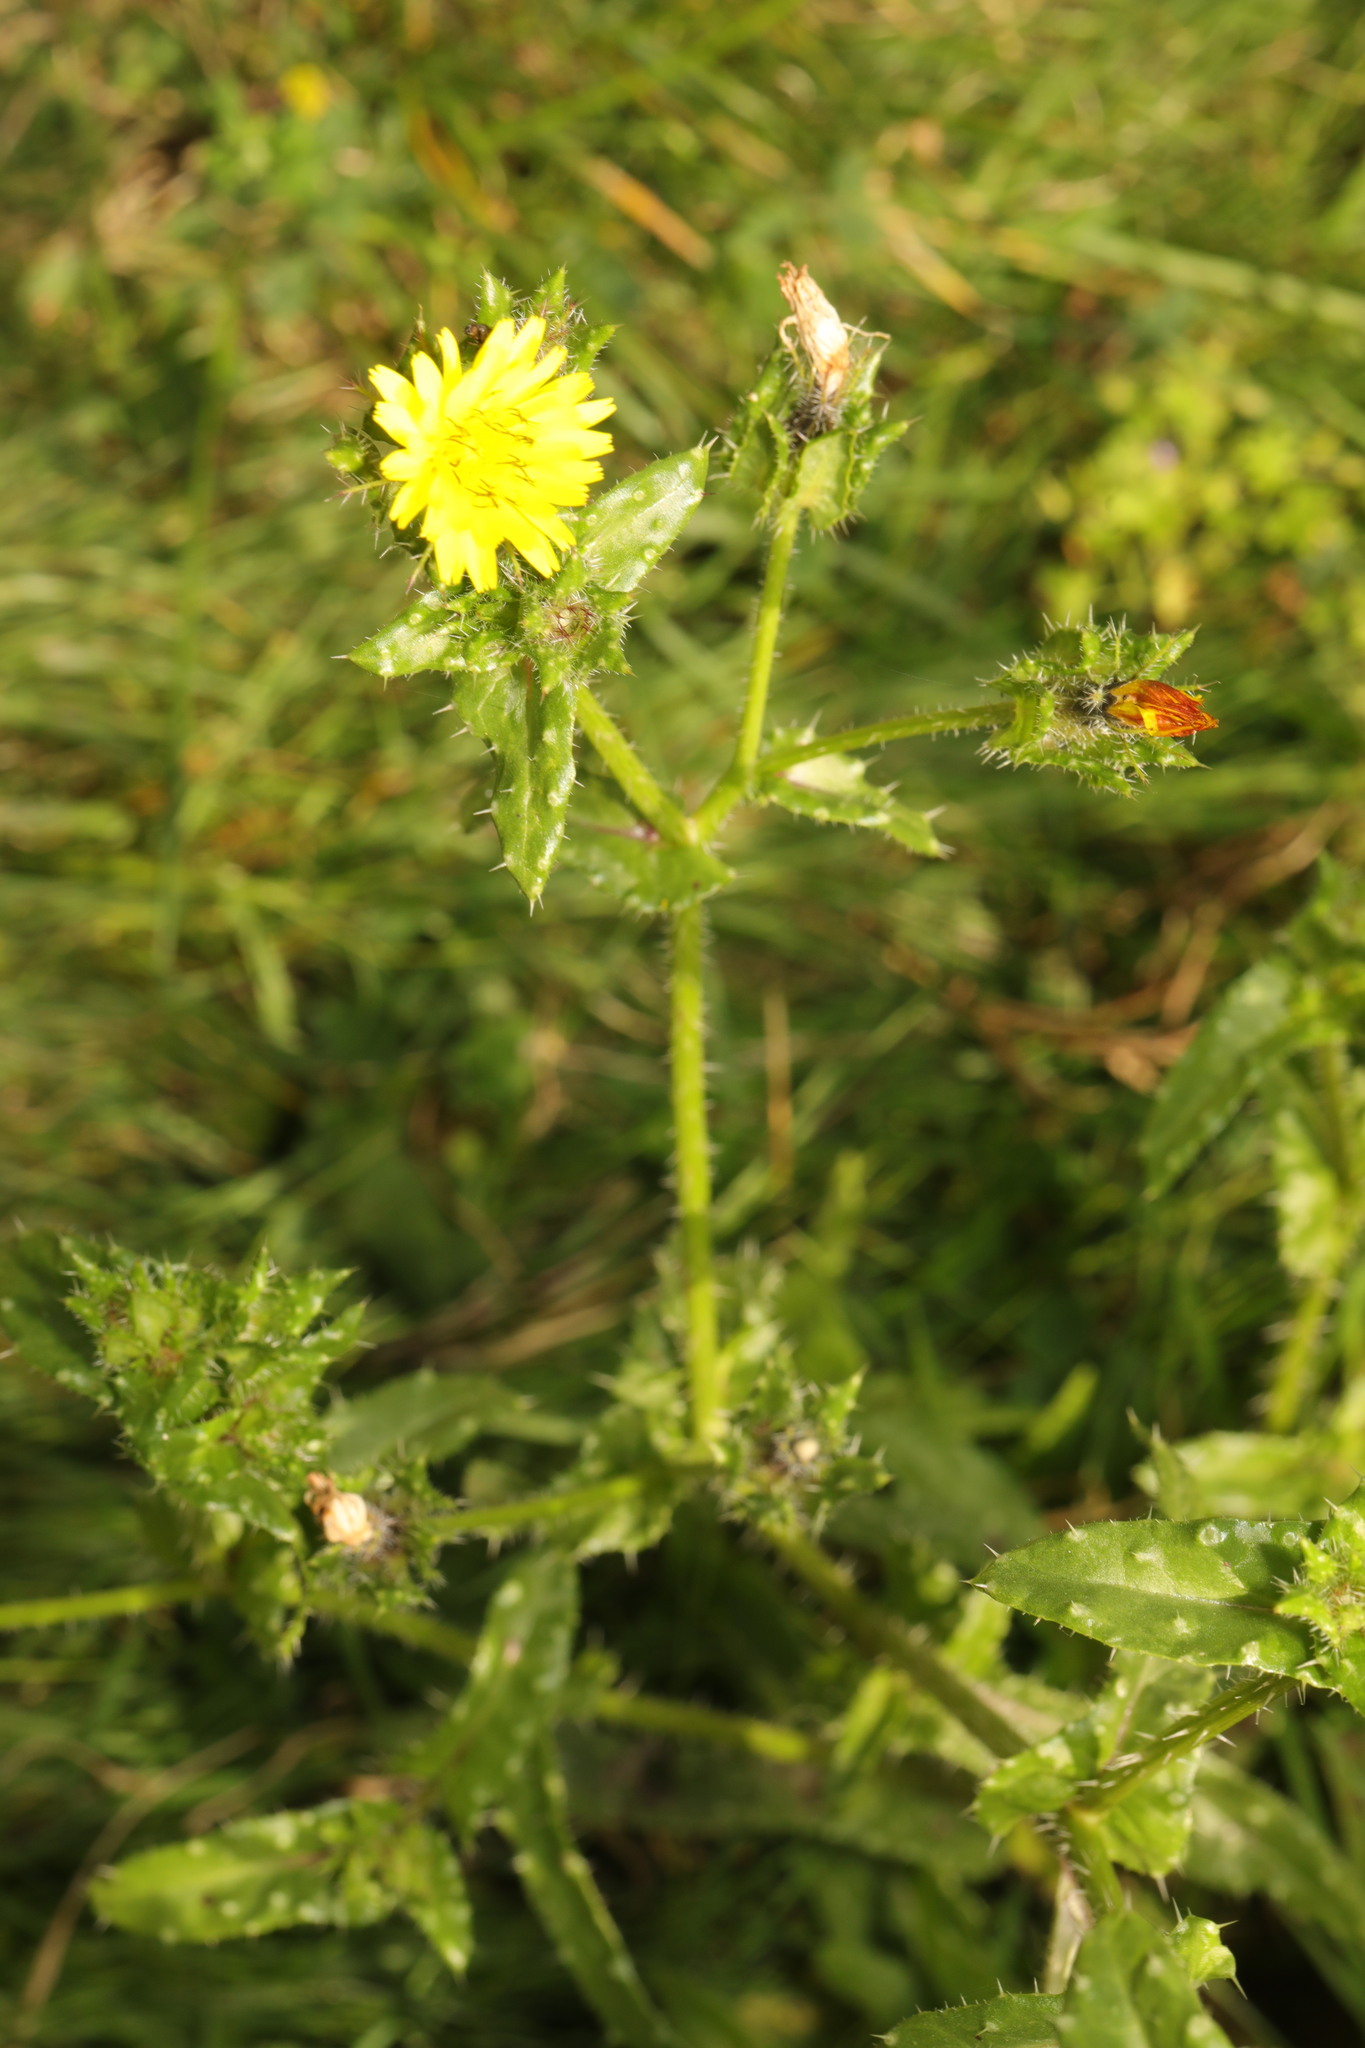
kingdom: Plantae
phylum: Tracheophyta
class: Magnoliopsida
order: Asterales
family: Asteraceae
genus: Helminthotheca
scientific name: Helminthotheca echioides
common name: Ox-tongue
